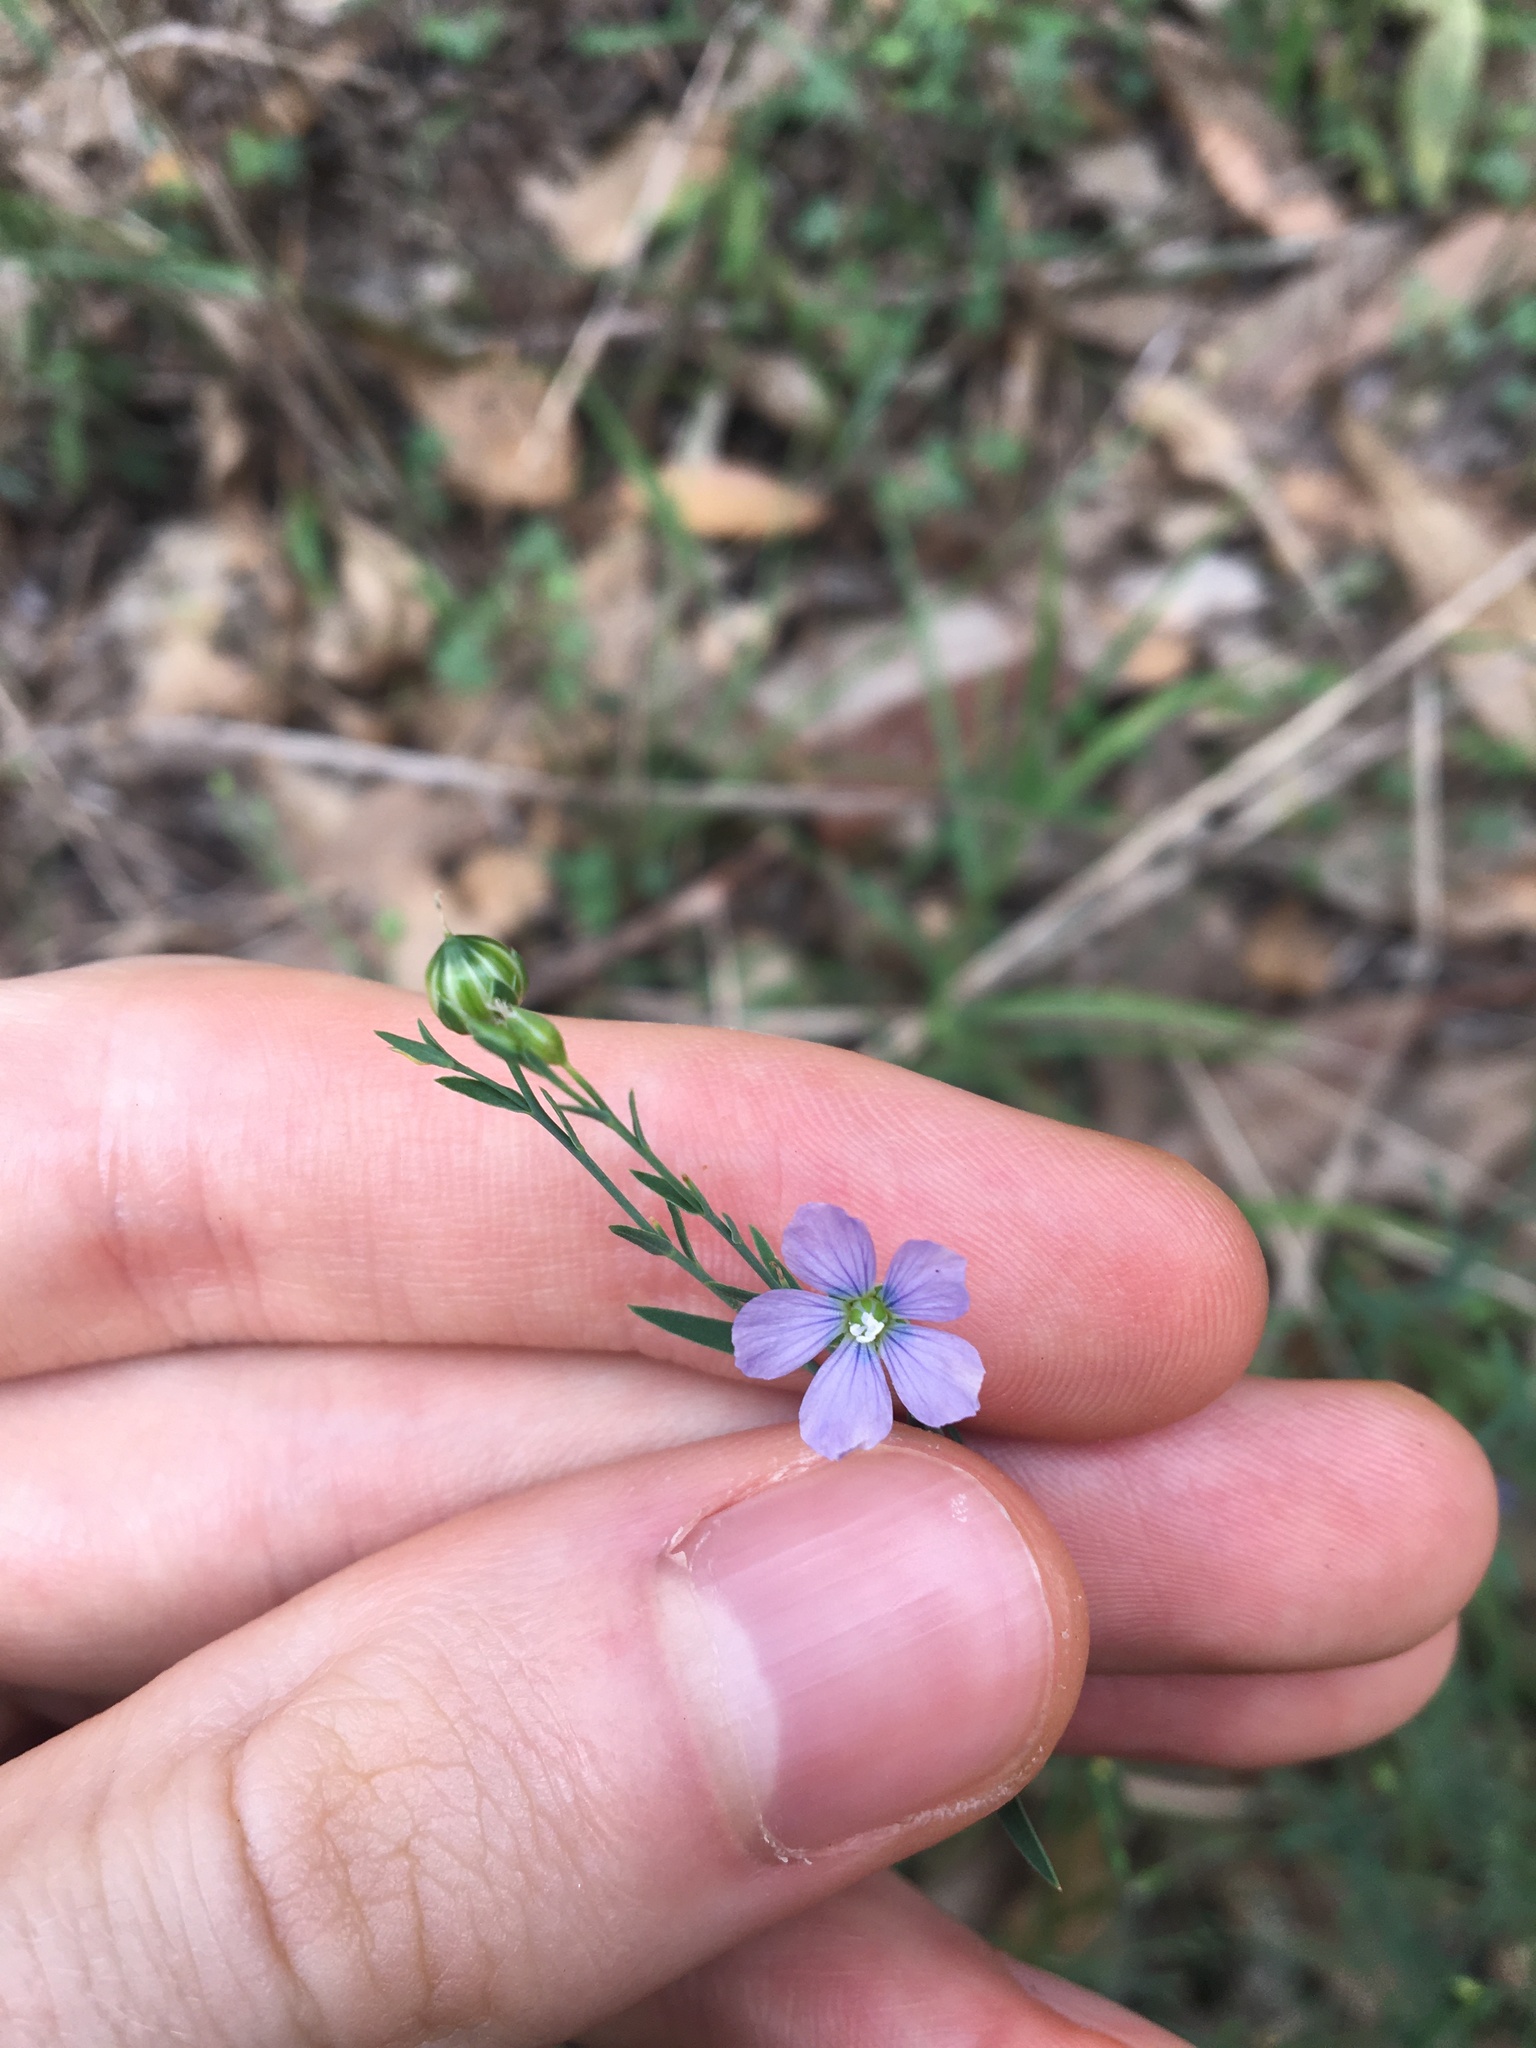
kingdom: Plantae
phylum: Tracheophyta
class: Magnoliopsida
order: Malpighiales
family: Linaceae
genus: Linum
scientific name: Linum marginale
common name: Wild flax
